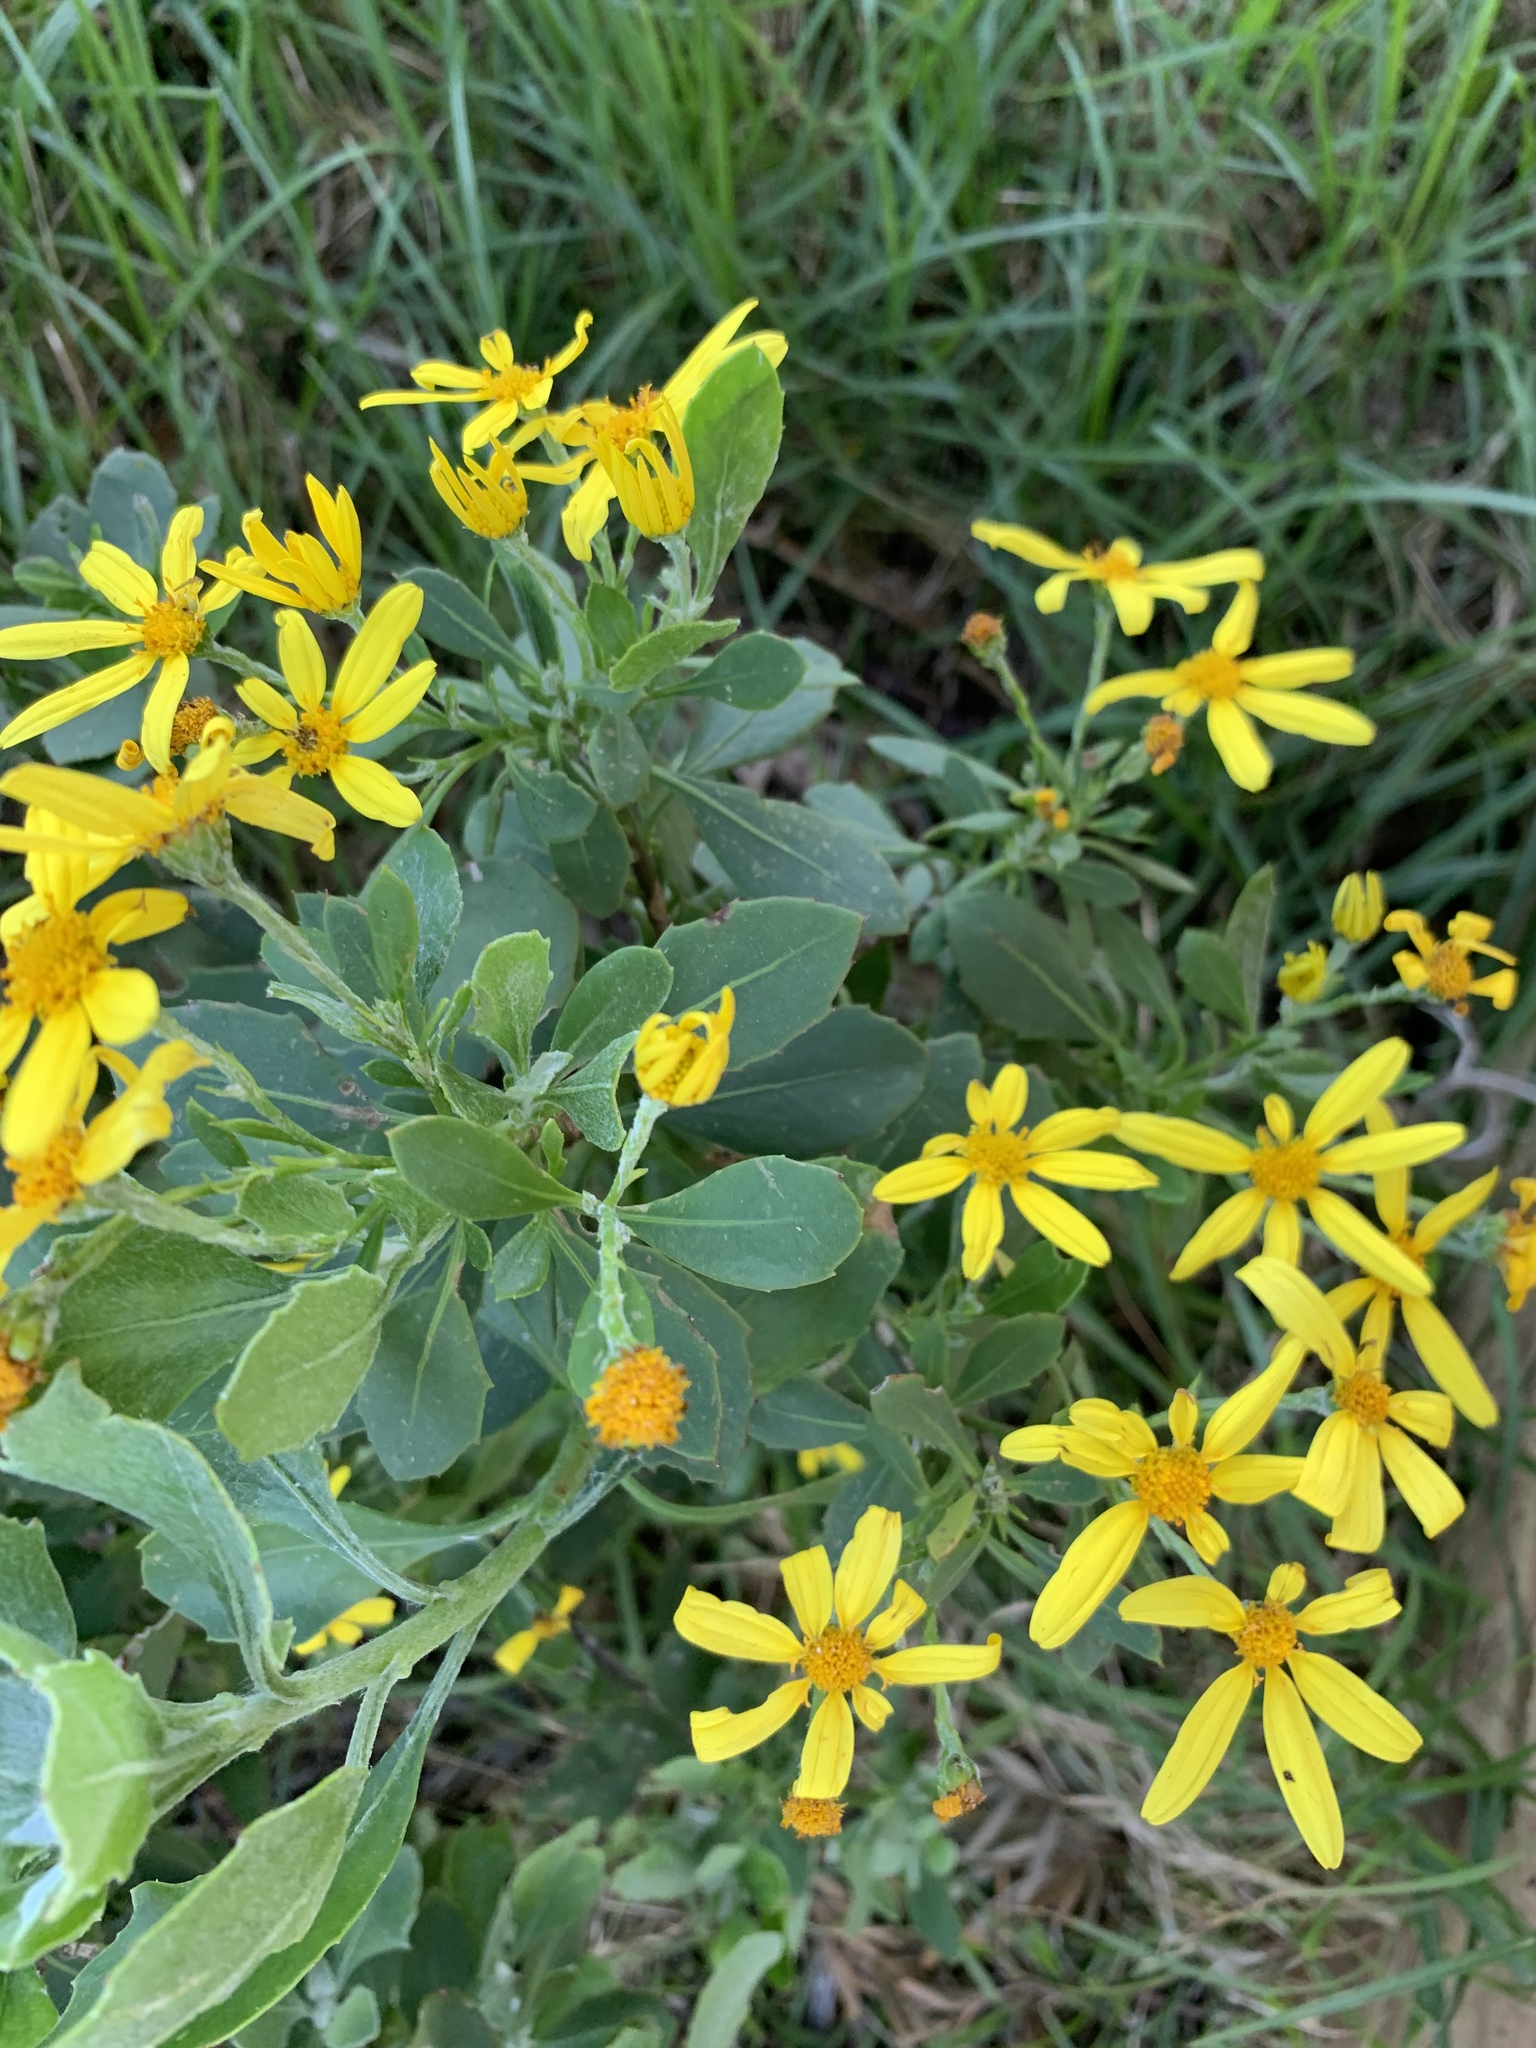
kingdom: Plantae
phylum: Tracheophyta
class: Magnoliopsida
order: Asterales
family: Asteraceae
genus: Osteospermum
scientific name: Osteospermum moniliferum
